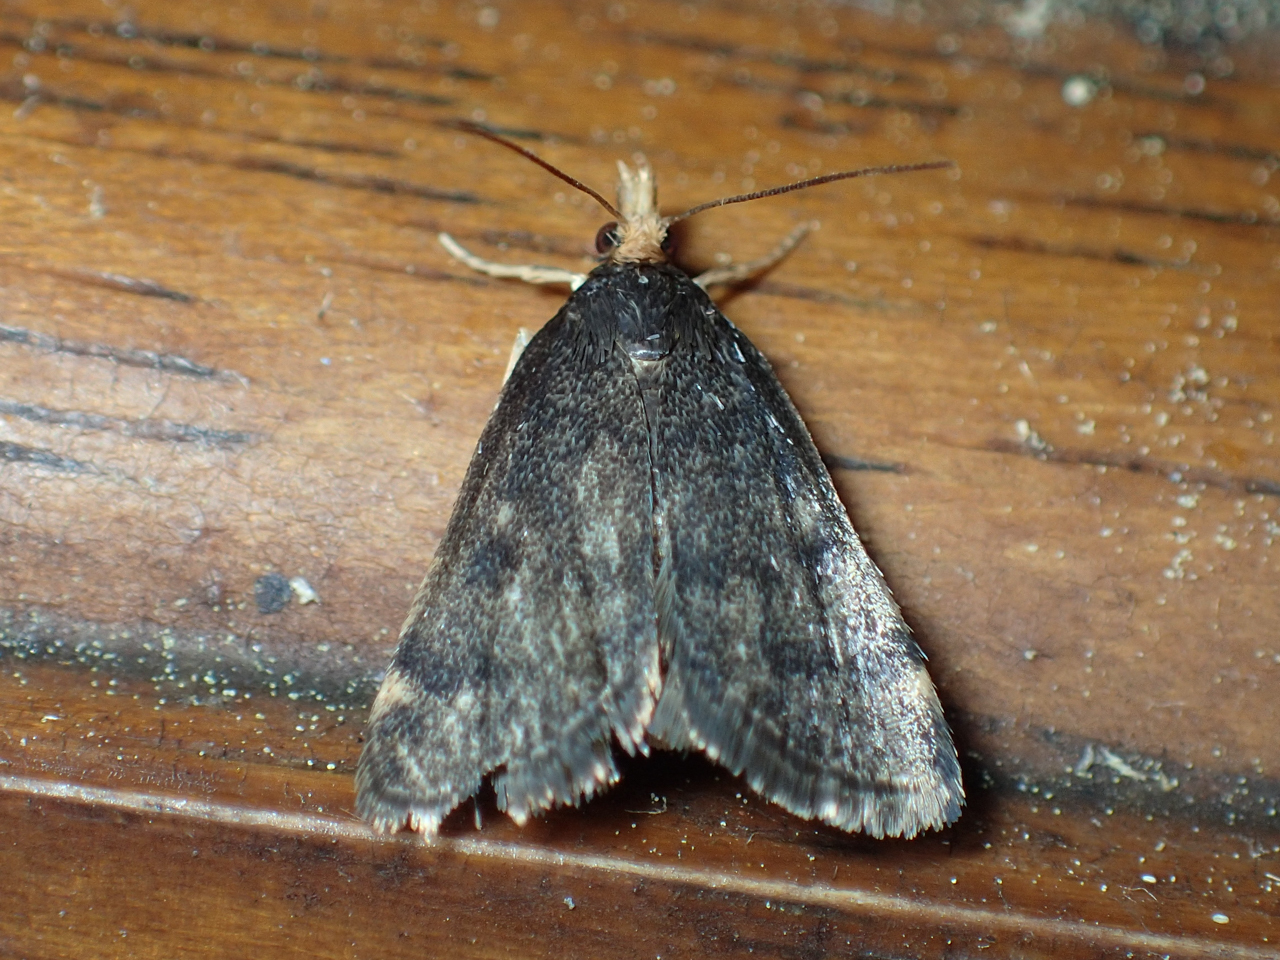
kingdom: Animalia
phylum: Arthropoda
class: Insecta
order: Lepidoptera
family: Crambidae
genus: Pyrausta
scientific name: Pyrausta merrickalis
